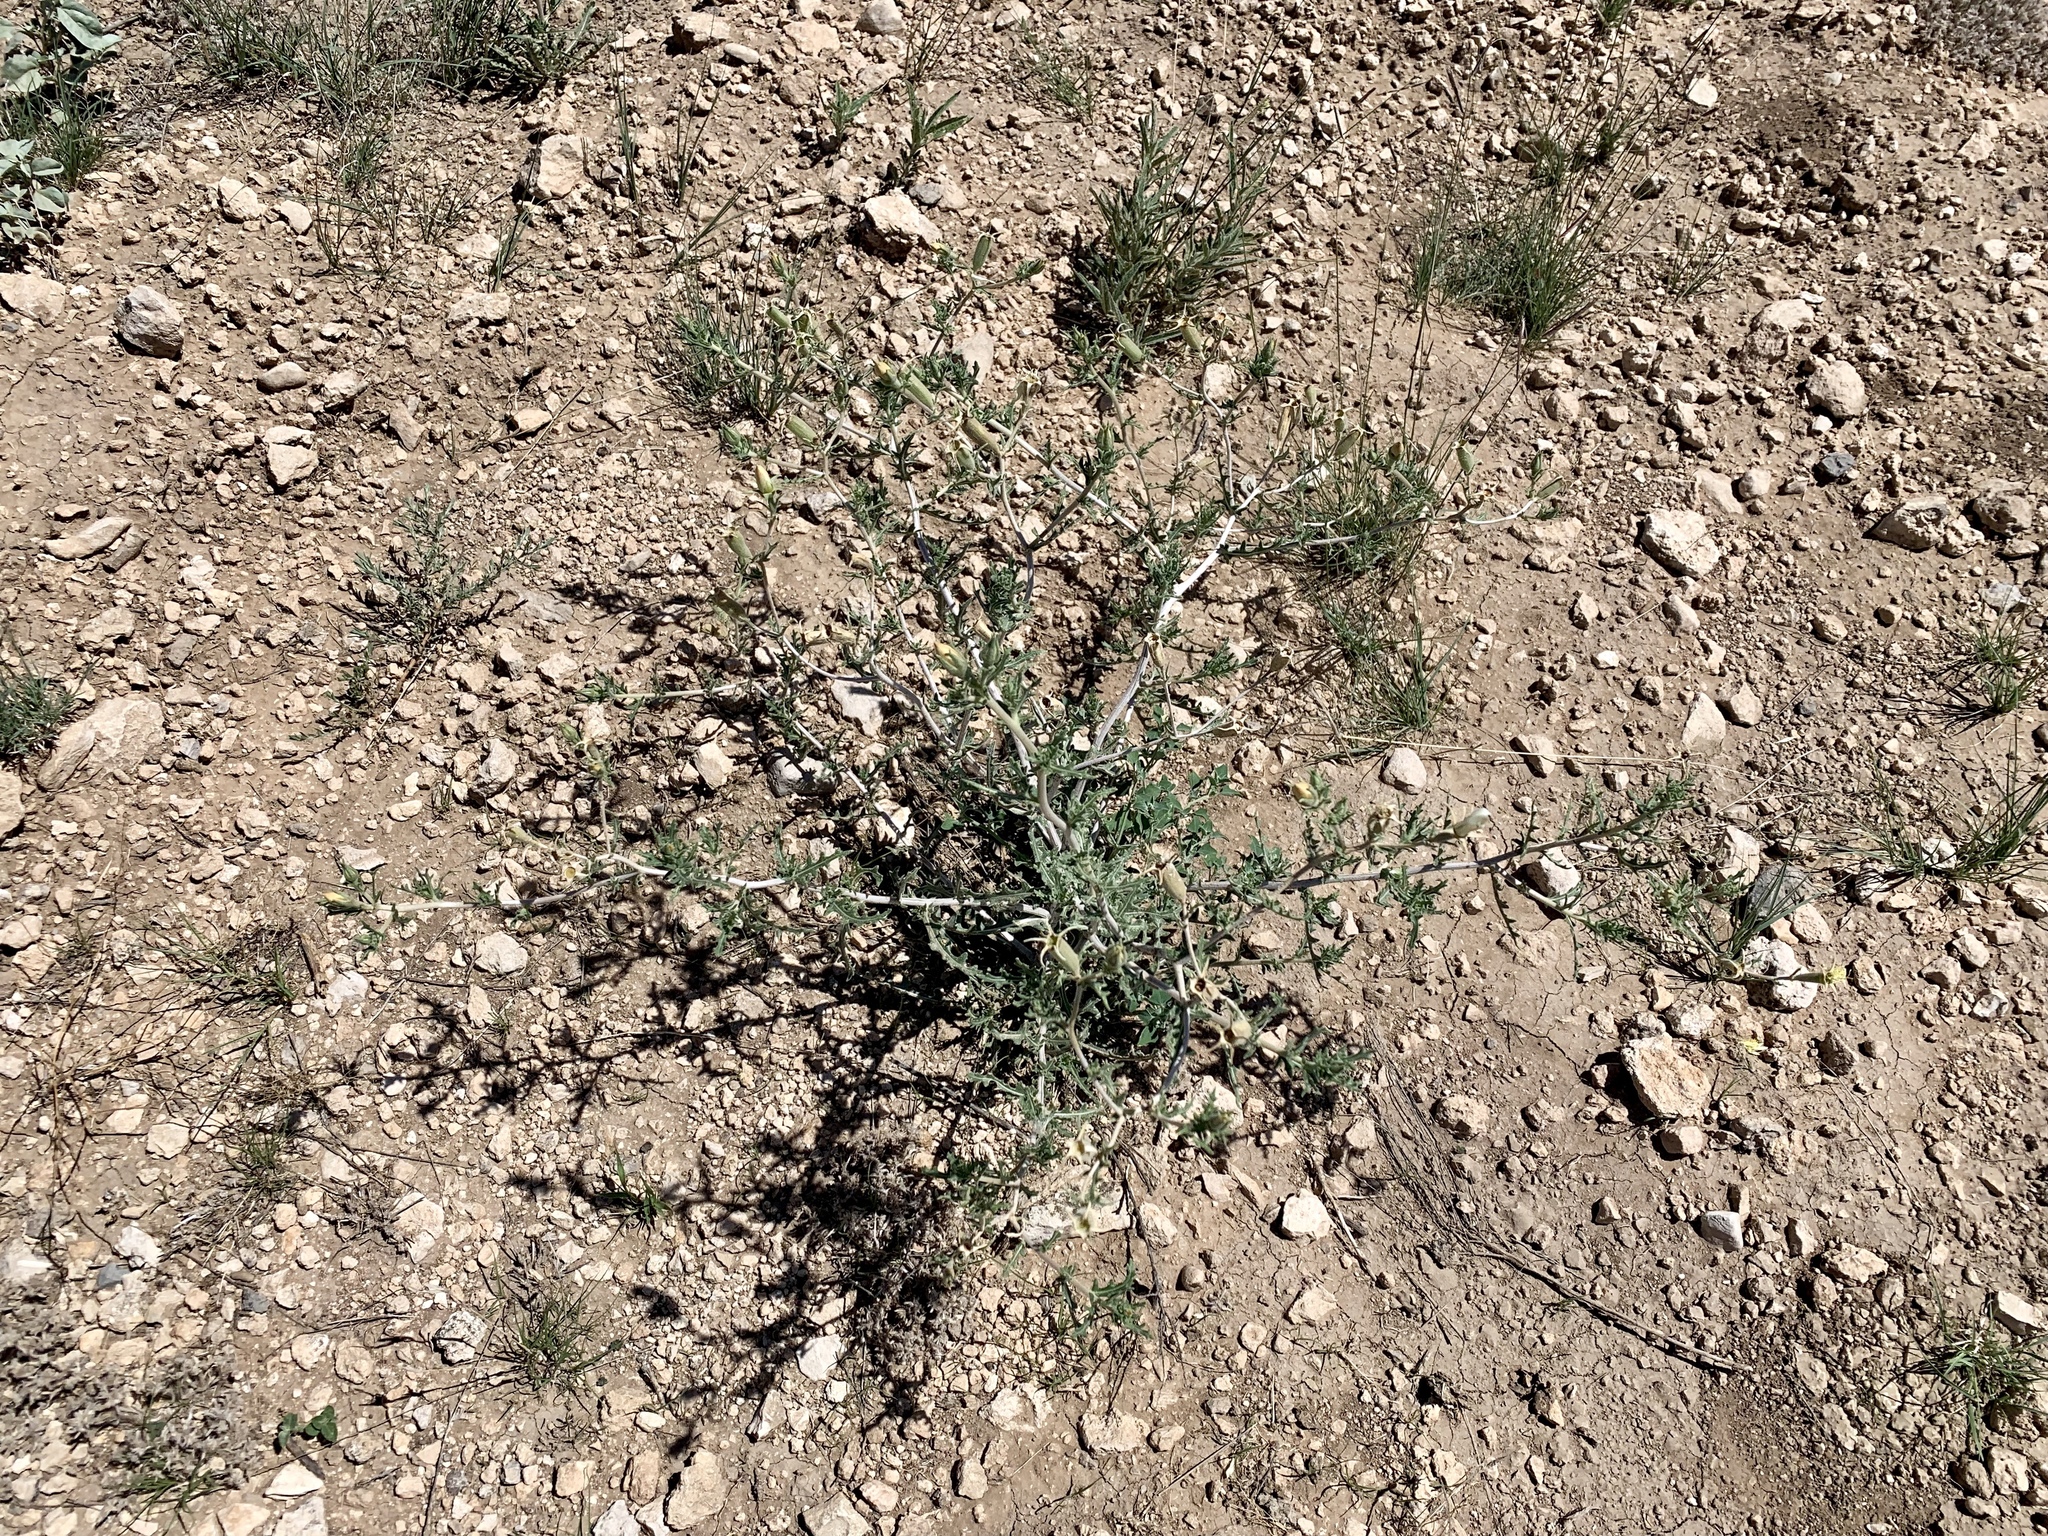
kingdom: Plantae
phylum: Tracheophyta
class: Magnoliopsida
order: Cornales
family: Loasaceae
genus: Mentzelia
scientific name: Mentzelia procera
